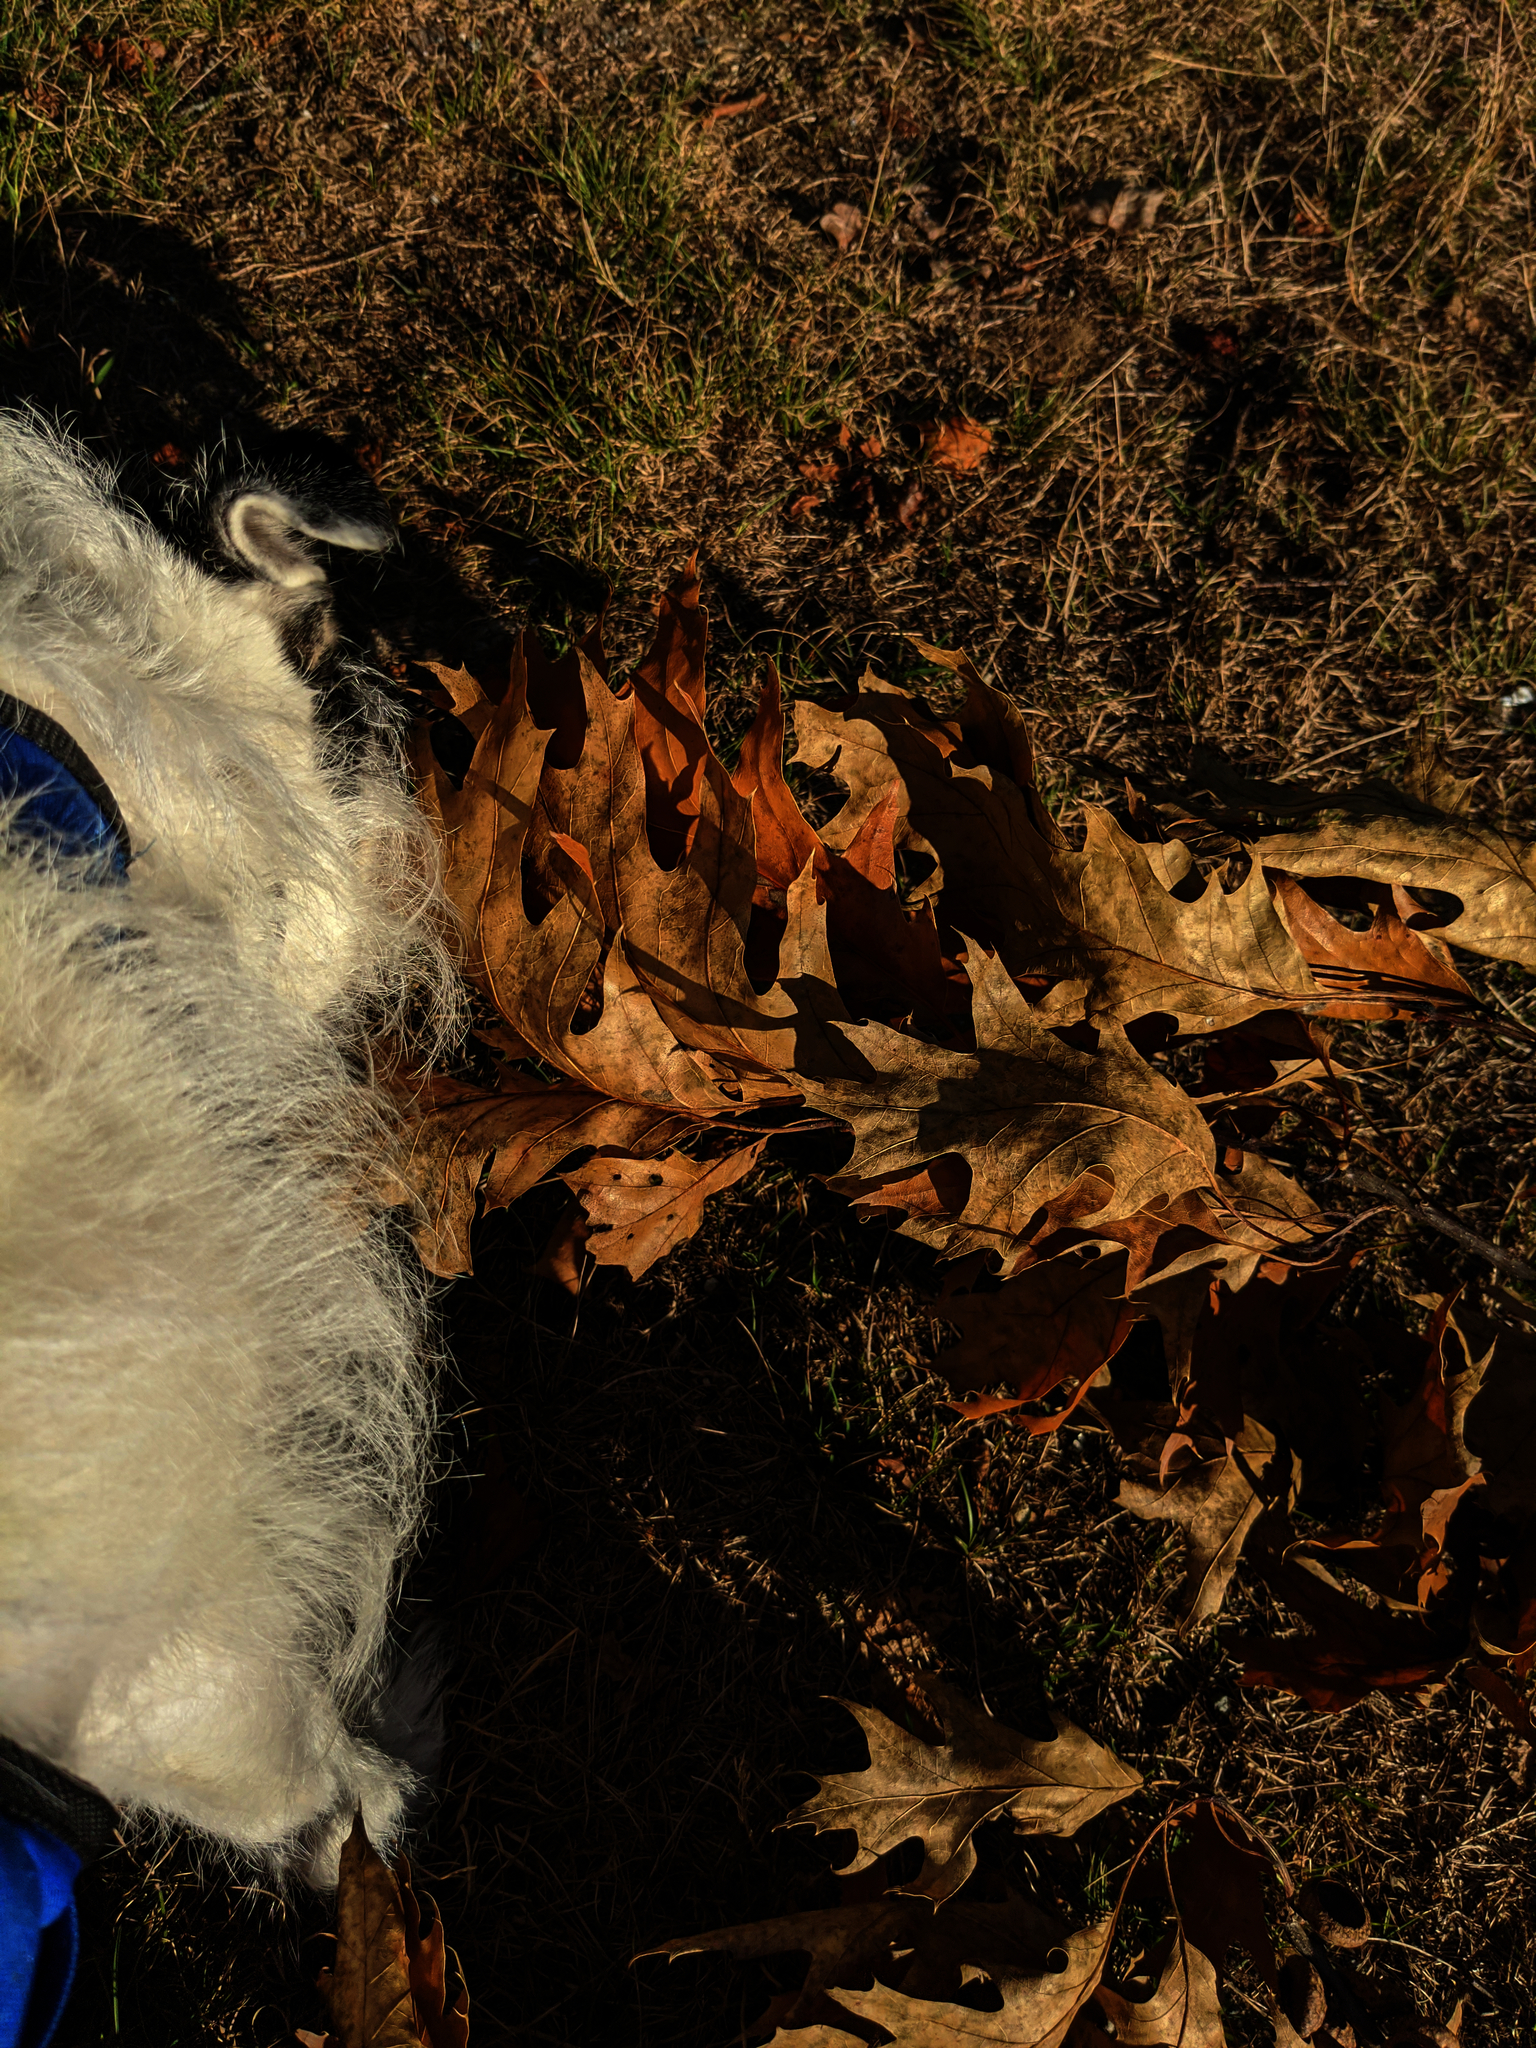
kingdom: Plantae
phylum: Tracheophyta
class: Magnoliopsida
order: Fagales
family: Fagaceae
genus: Quercus
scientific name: Quercus rubra
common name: Red oak
